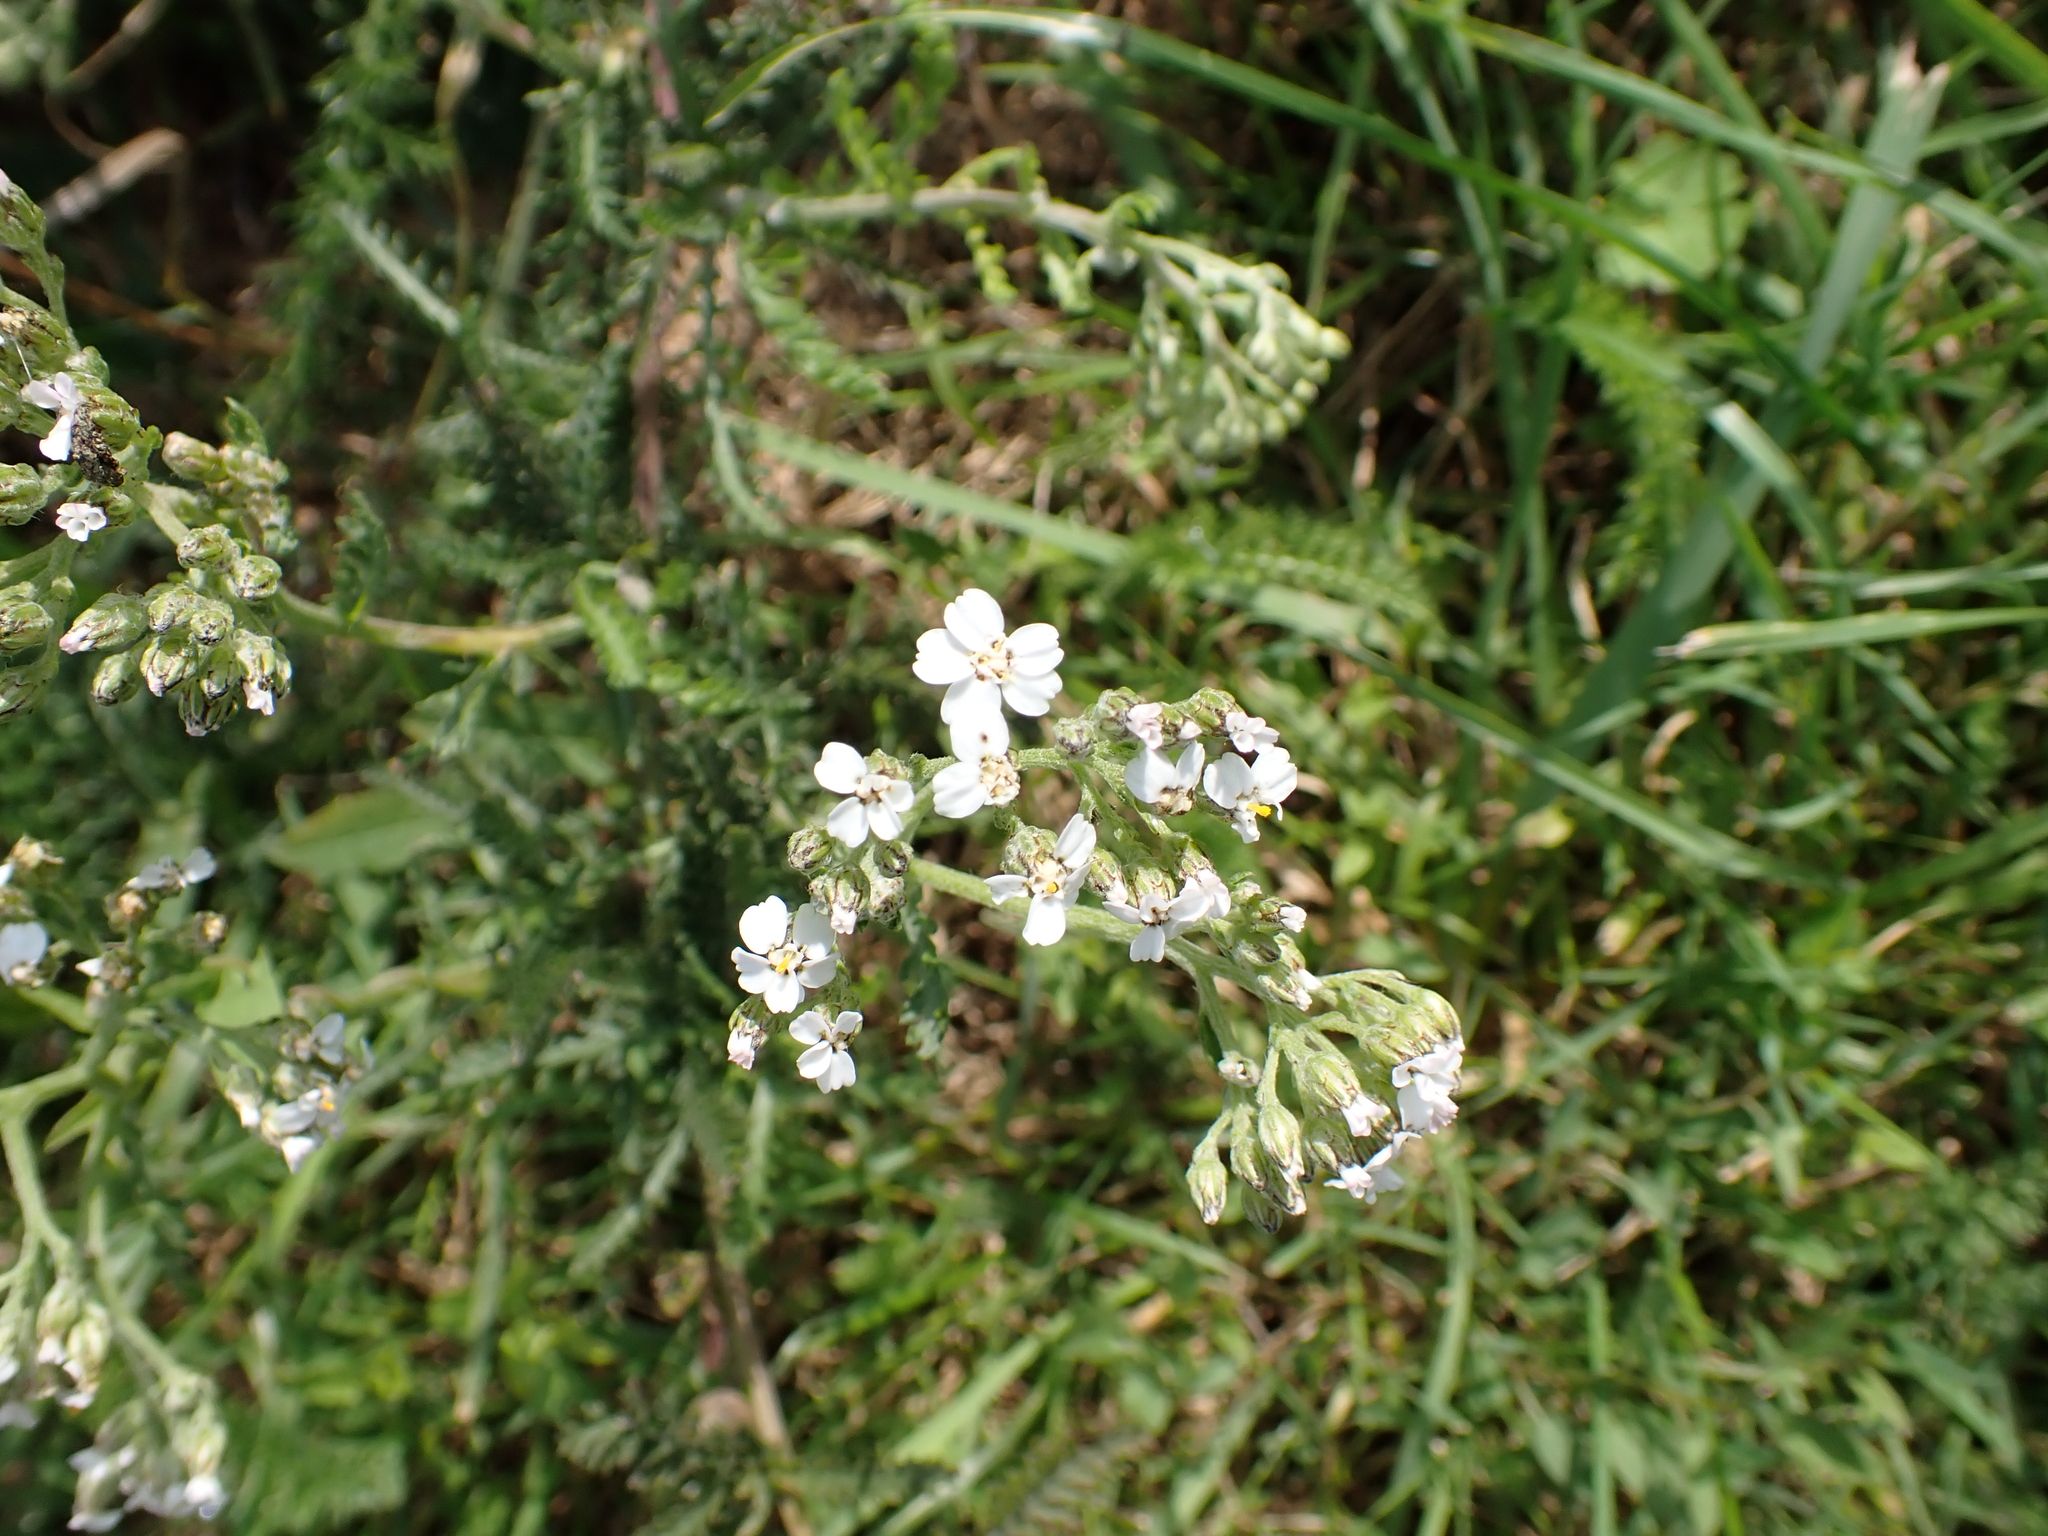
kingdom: Plantae
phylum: Tracheophyta
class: Magnoliopsida
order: Asterales
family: Asteraceae
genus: Achillea
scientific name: Achillea millefolium
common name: Yarrow
